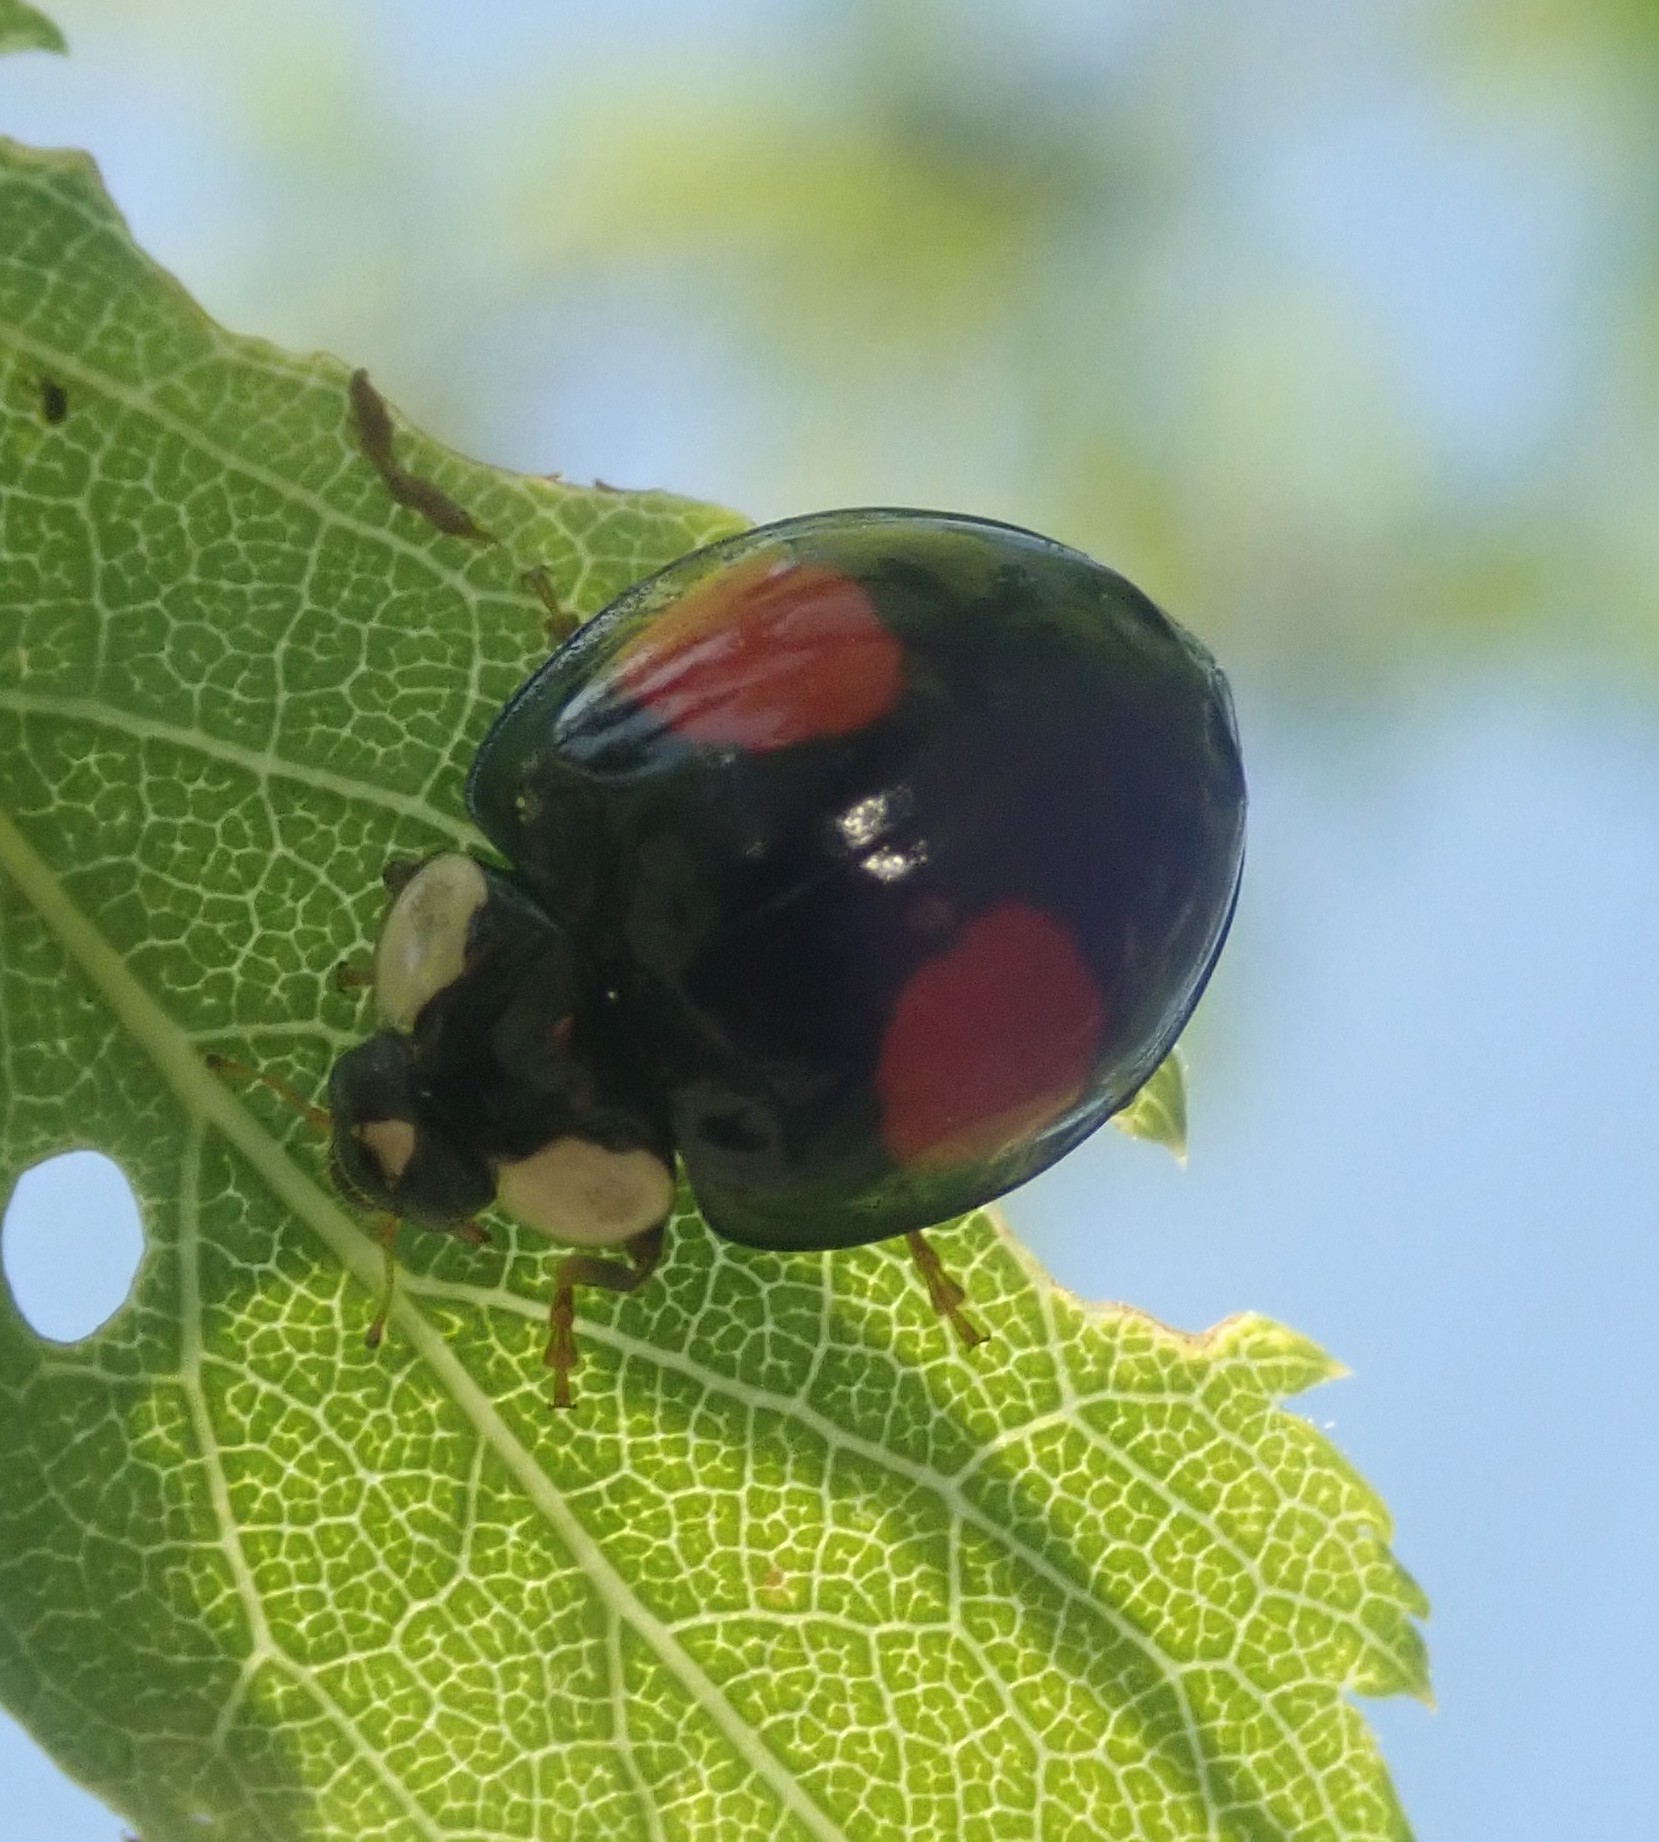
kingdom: Animalia
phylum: Arthropoda
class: Insecta
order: Coleoptera
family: Coccinellidae
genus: Harmonia
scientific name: Harmonia axyridis
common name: Harlequin ladybird
